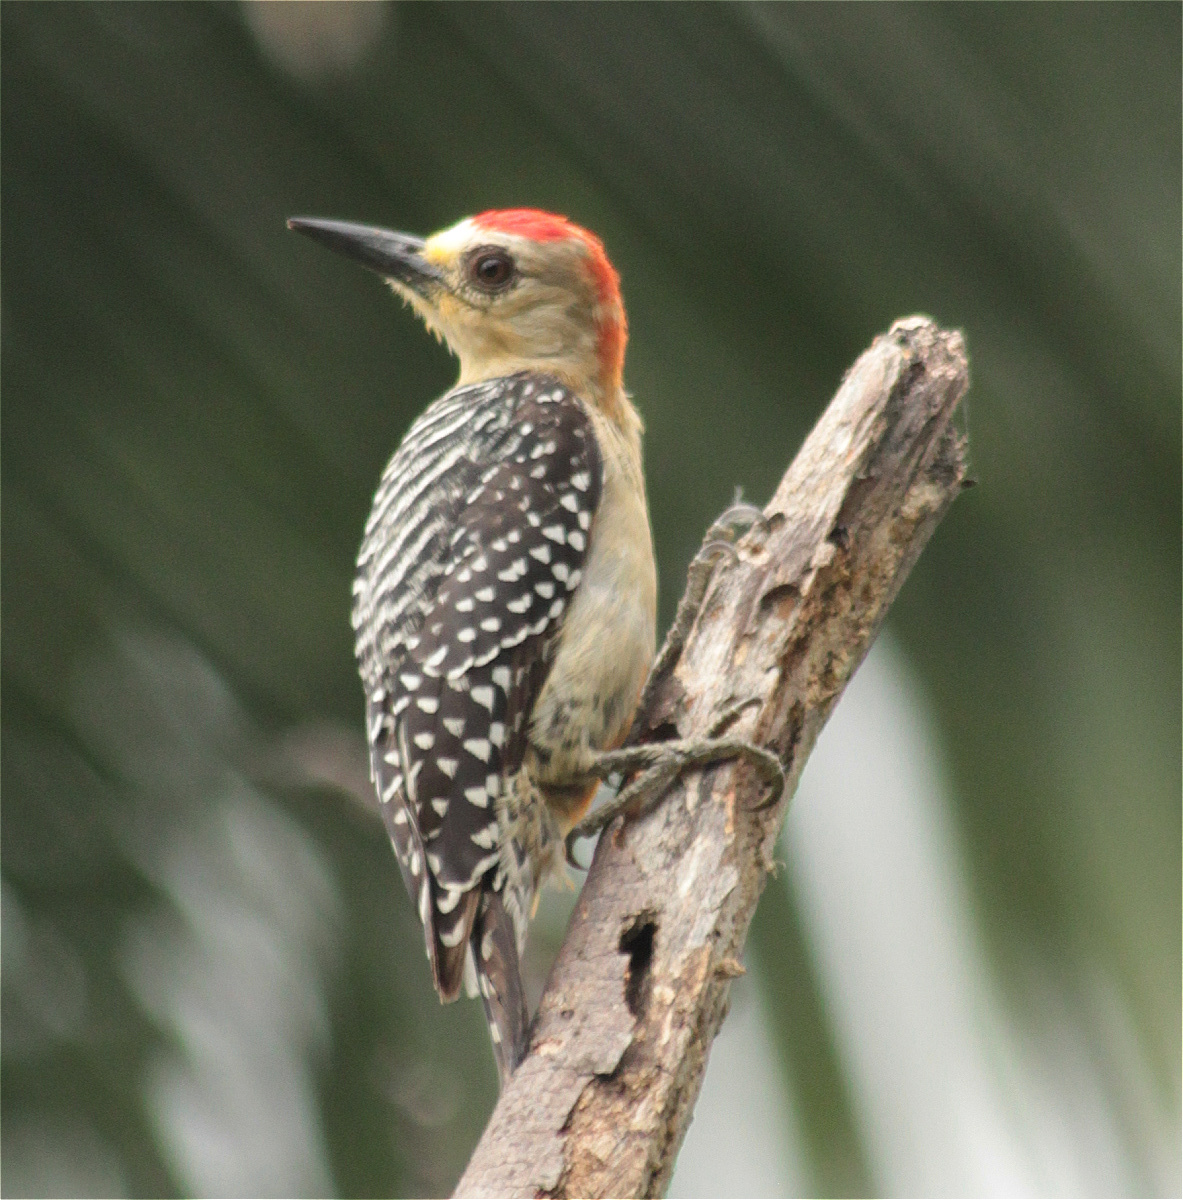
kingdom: Animalia
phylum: Chordata
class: Aves
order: Piciformes
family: Picidae
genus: Melanerpes
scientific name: Melanerpes rubricapillus
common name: Red-crowned woodpecker
